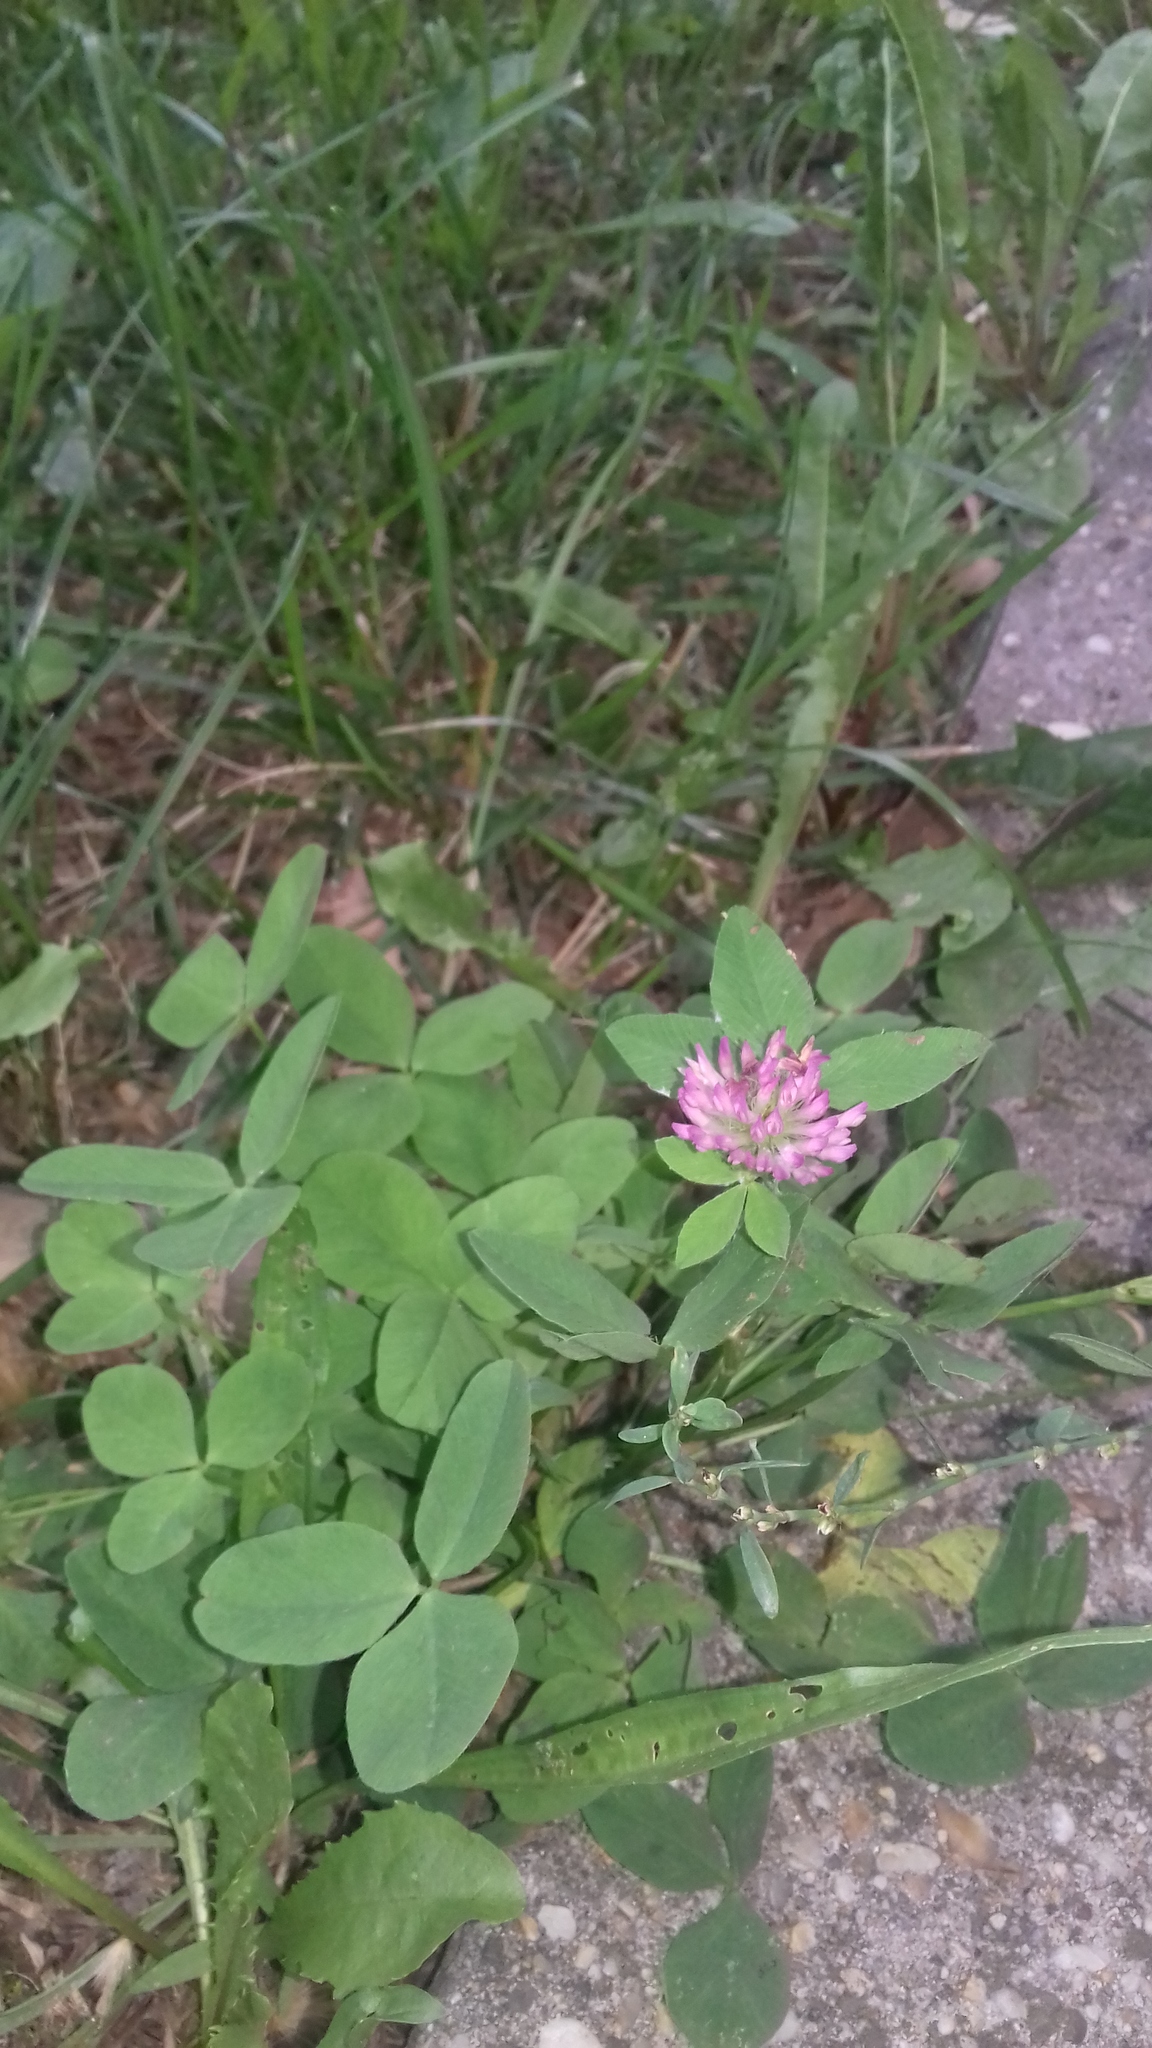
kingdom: Plantae
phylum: Tracheophyta
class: Magnoliopsida
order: Fabales
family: Fabaceae
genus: Trifolium
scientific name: Trifolium pratense
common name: Red clover
